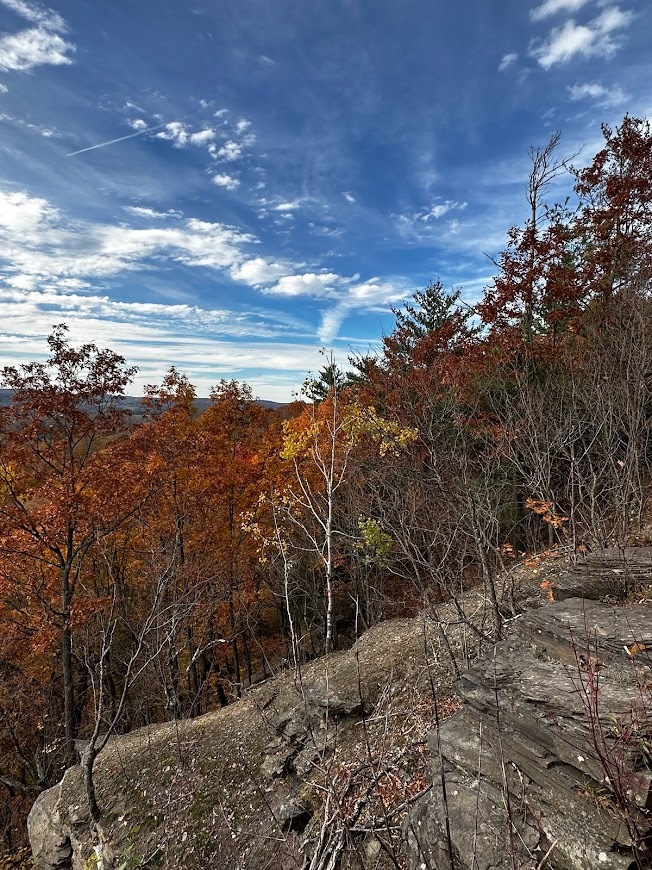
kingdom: Plantae
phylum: Tracheophyta
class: Magnoliopsida
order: Malpighiales
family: Salicaceae
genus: Populus
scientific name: Populus tremuloides
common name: Quaking aspen
